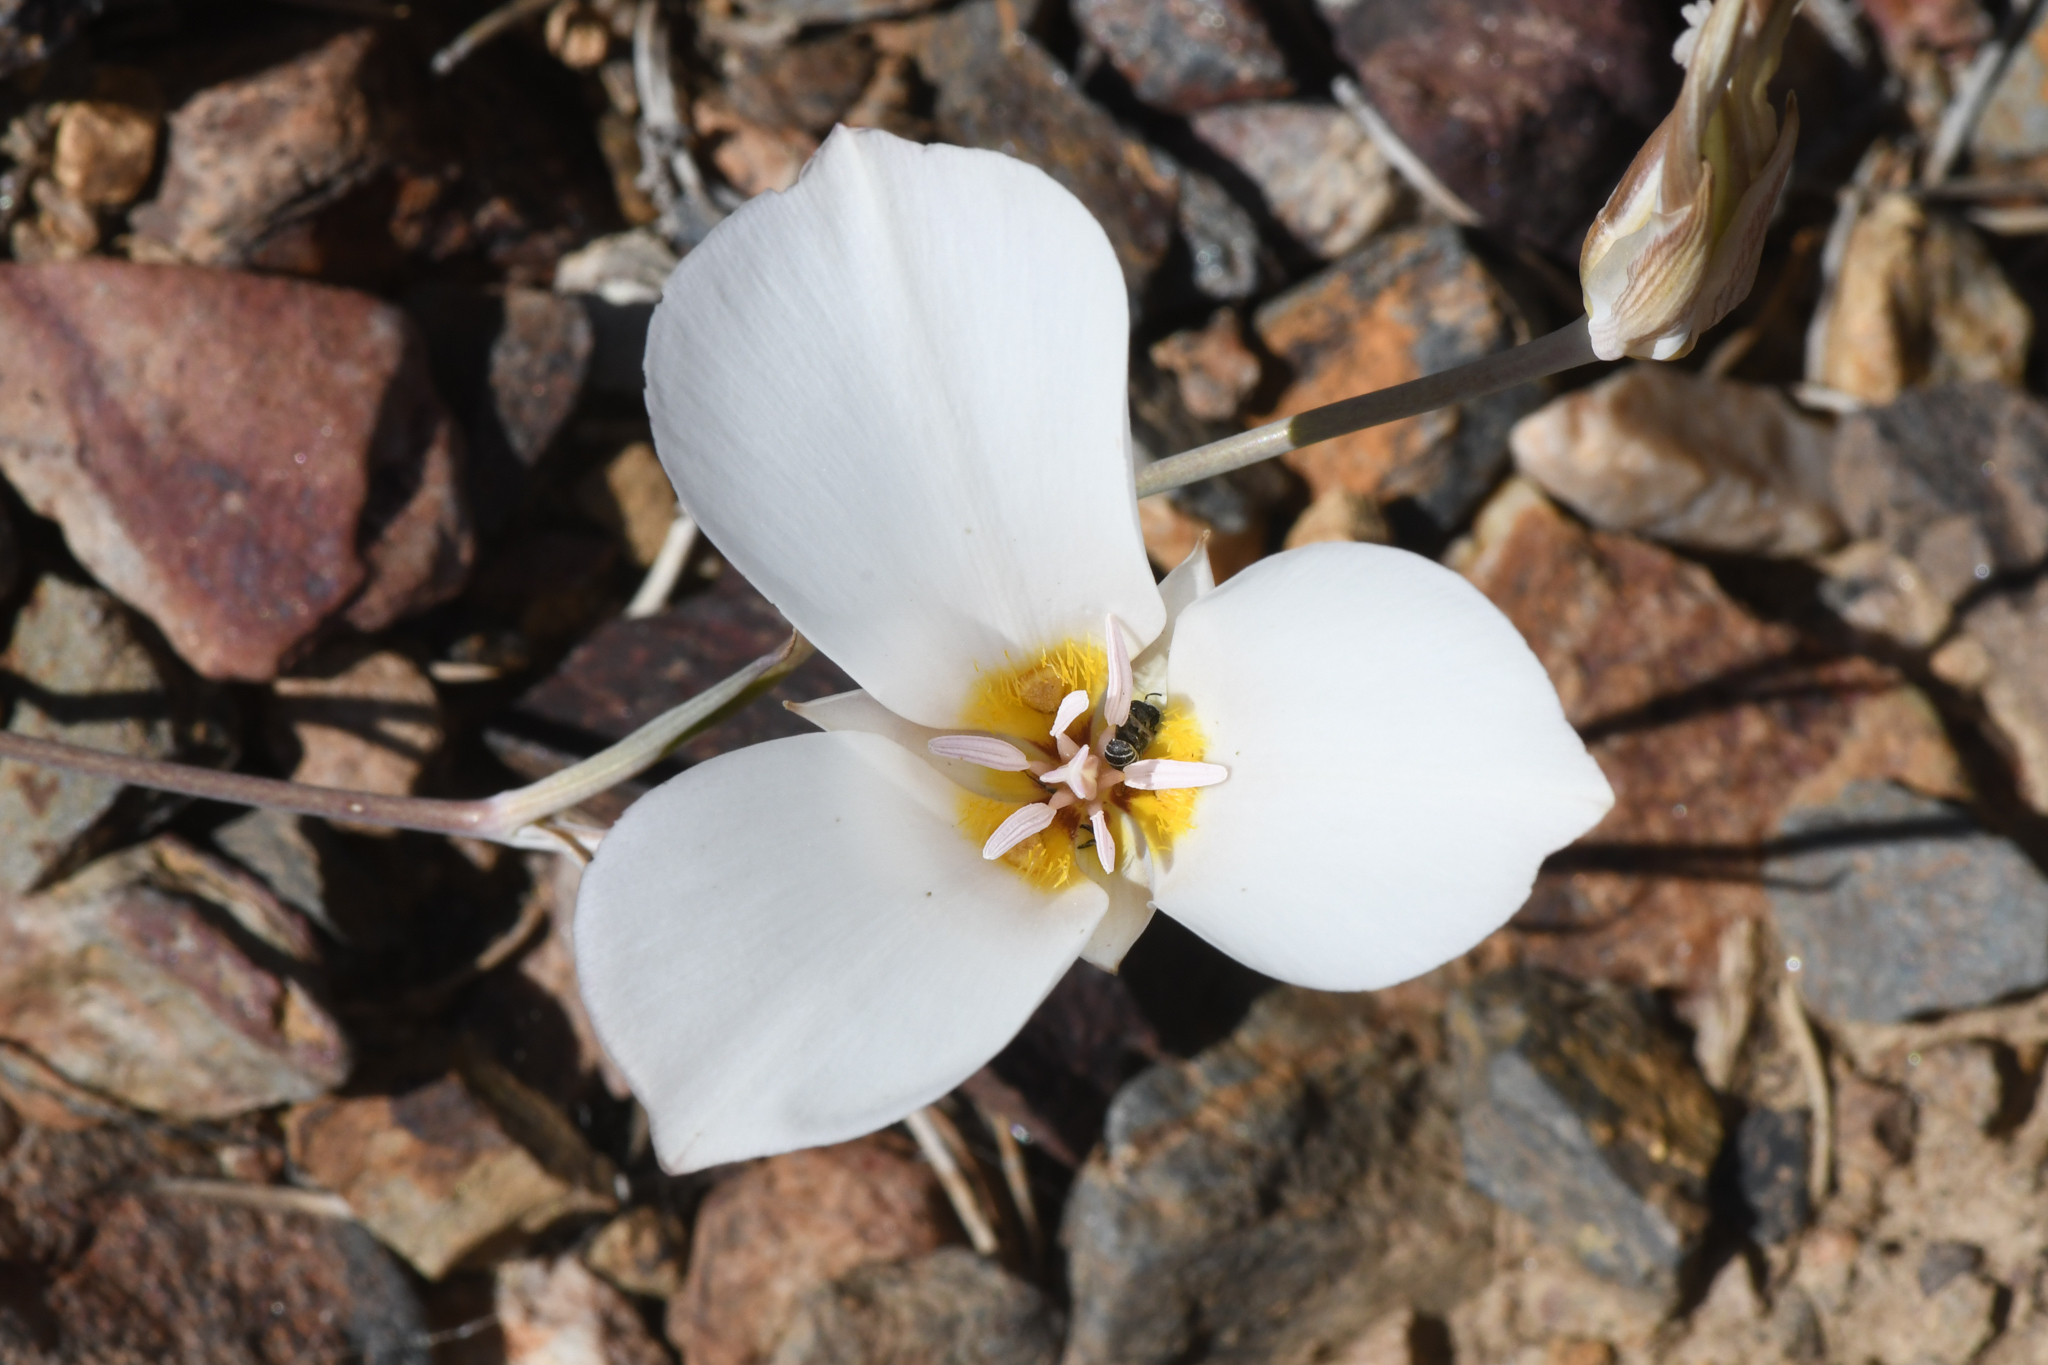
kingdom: Plantae
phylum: Tracheophyta
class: Liliopsida
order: Liliales
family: Liliaceae
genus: Calochortus
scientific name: Calochortus panamintensis
